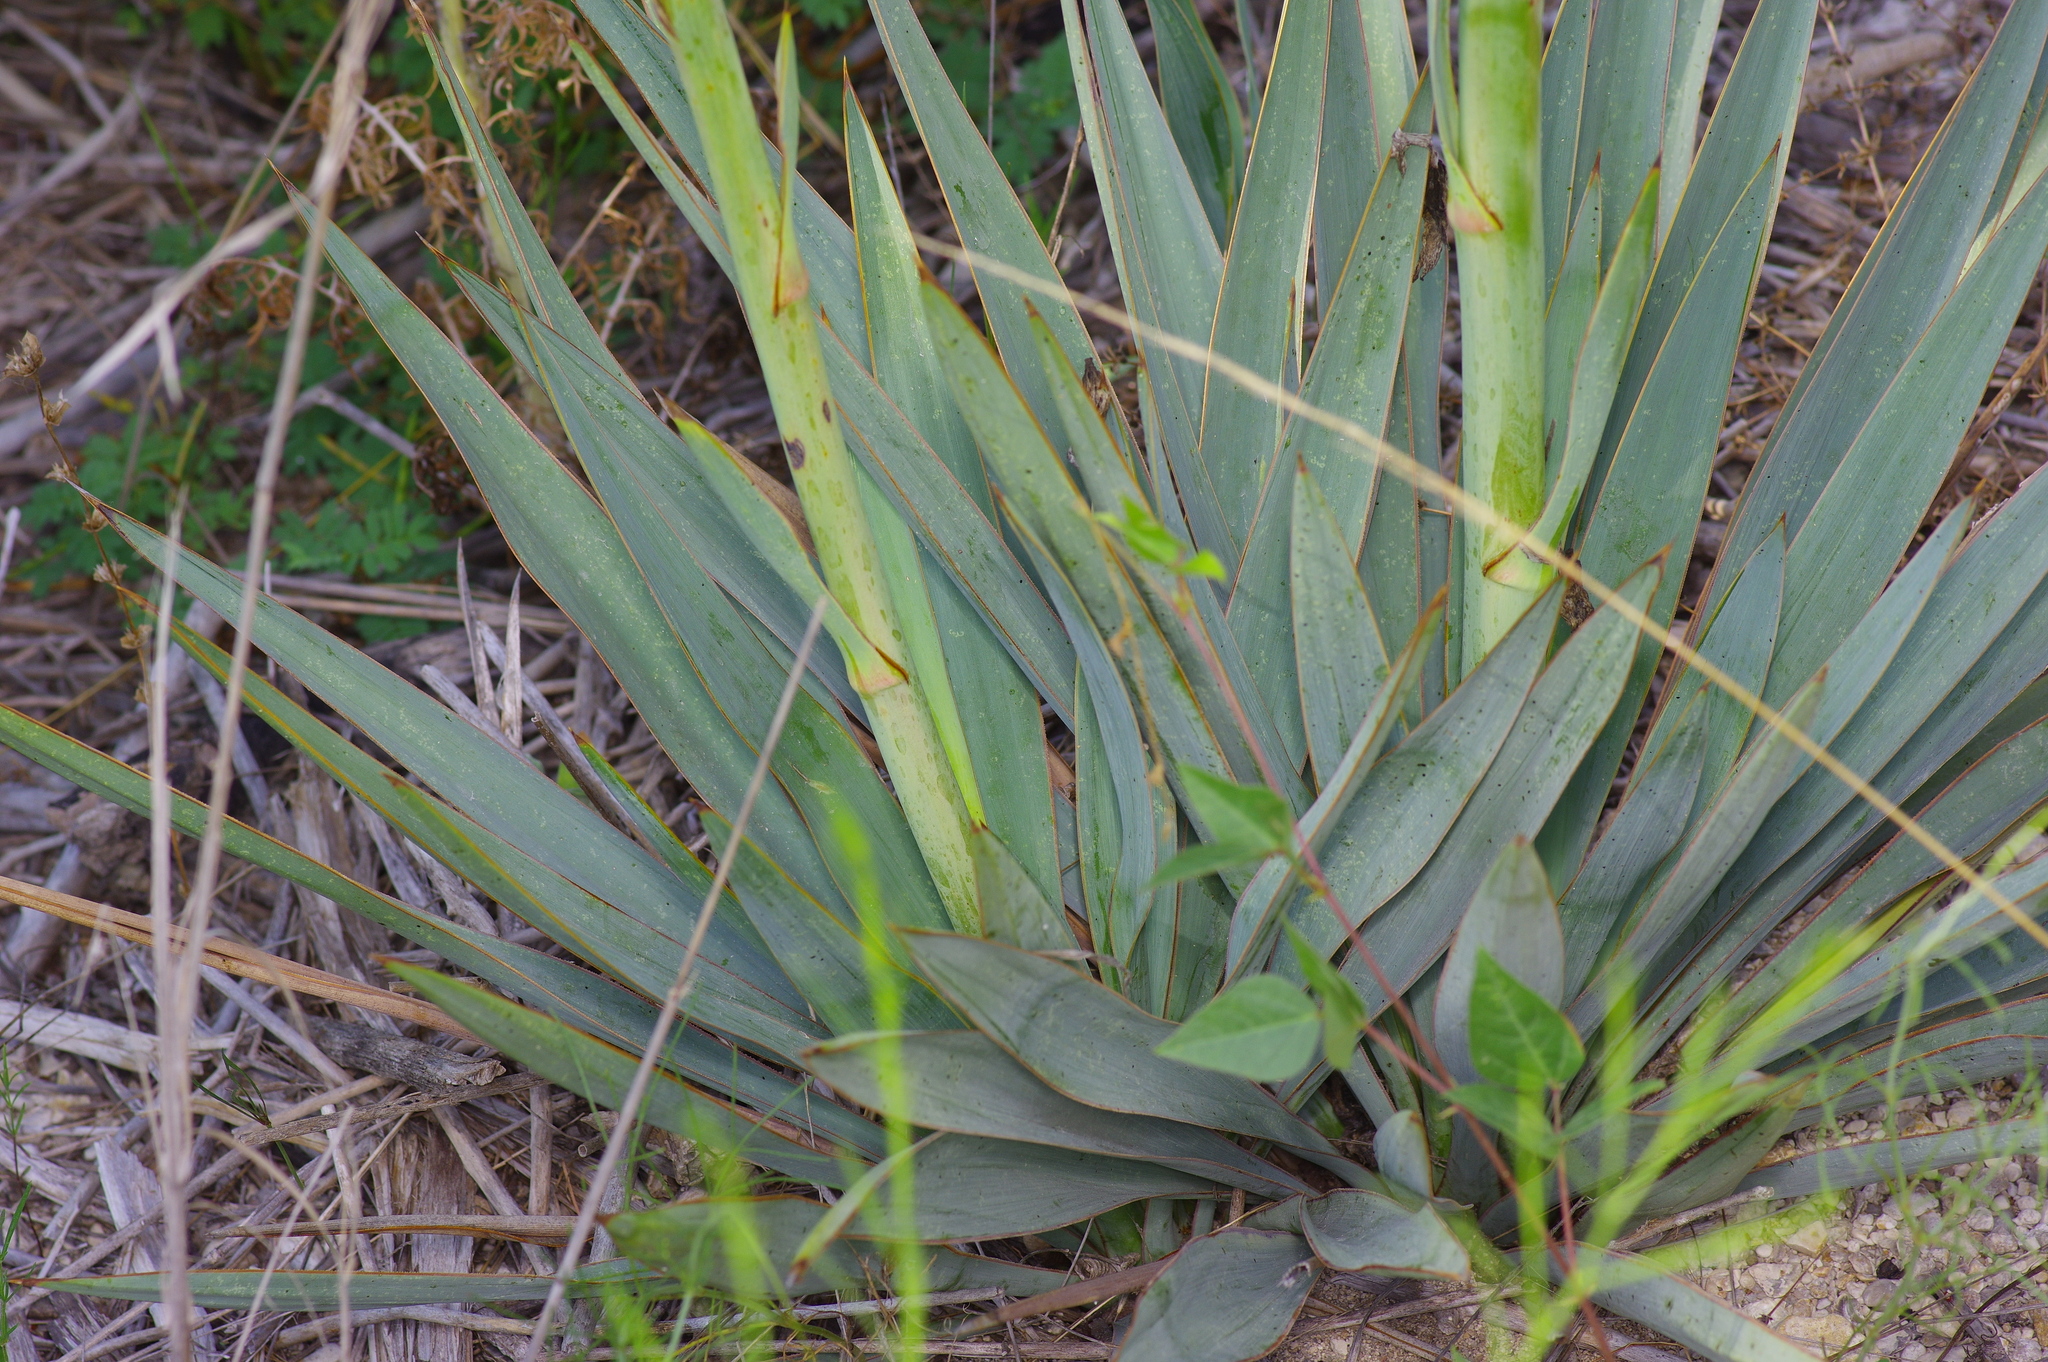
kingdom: Plantae
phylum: Tracheophyta
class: Liliopsida
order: Asparagales
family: Asparagaceae
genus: Yucca
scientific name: Yucca pallida
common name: Pale leaf yucca
